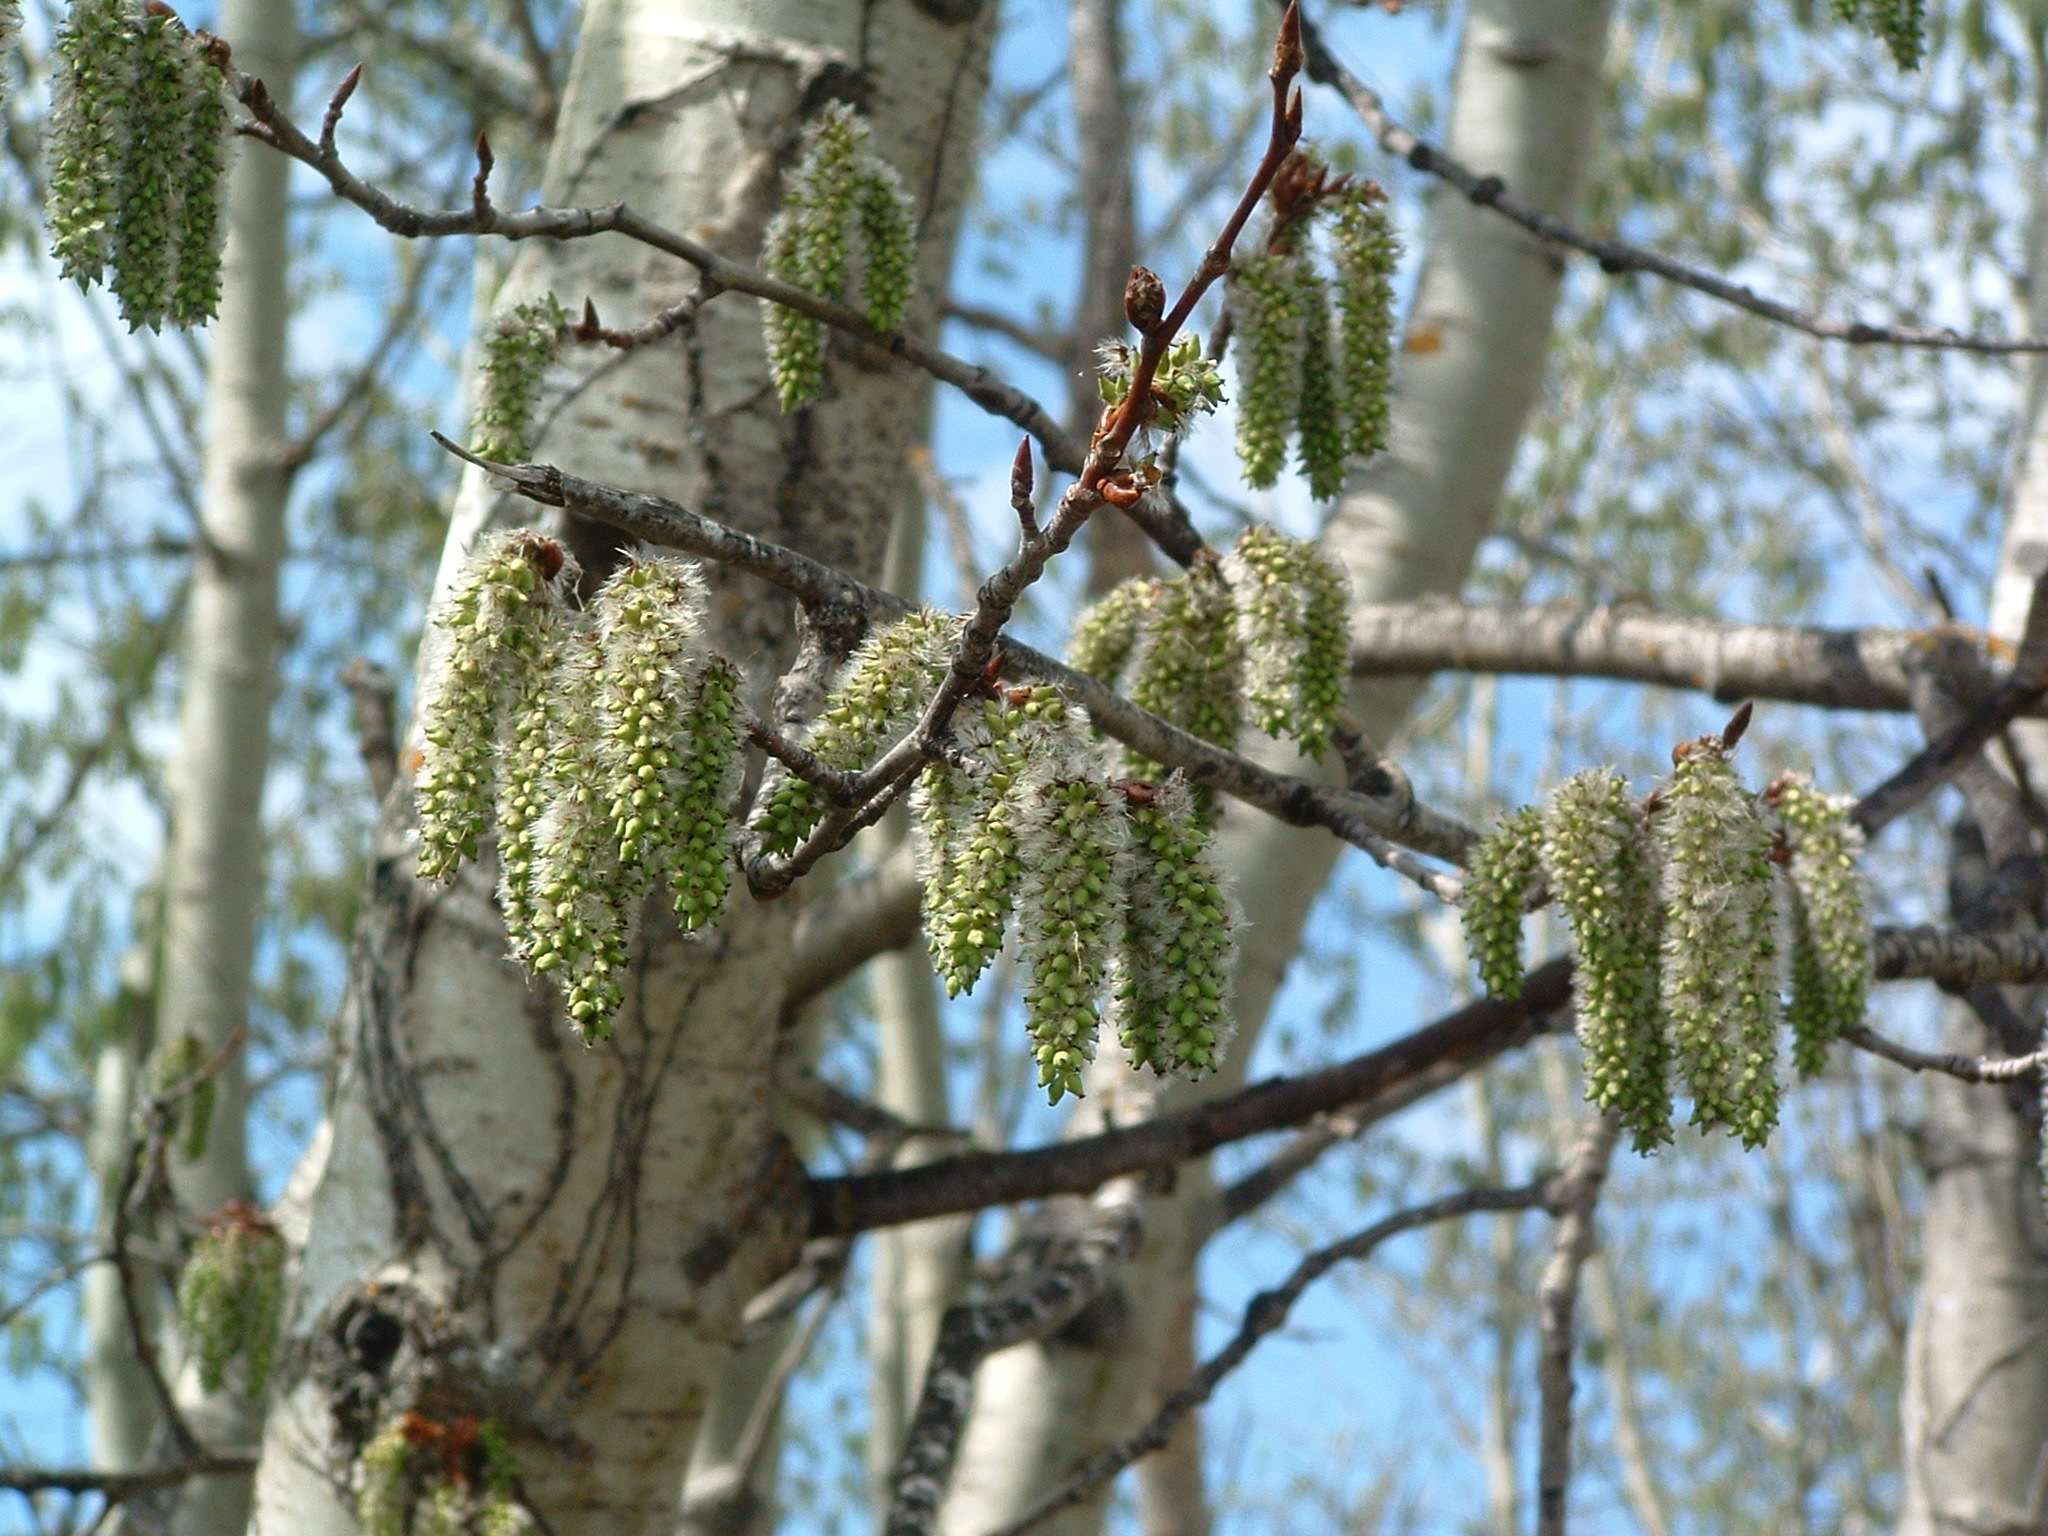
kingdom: Plantae
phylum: Tracheophyta
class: Magnoliopsida
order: Malpighiales
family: Salicaceae
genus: Populus
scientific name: Populus tremuloides
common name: Quaking aspen
